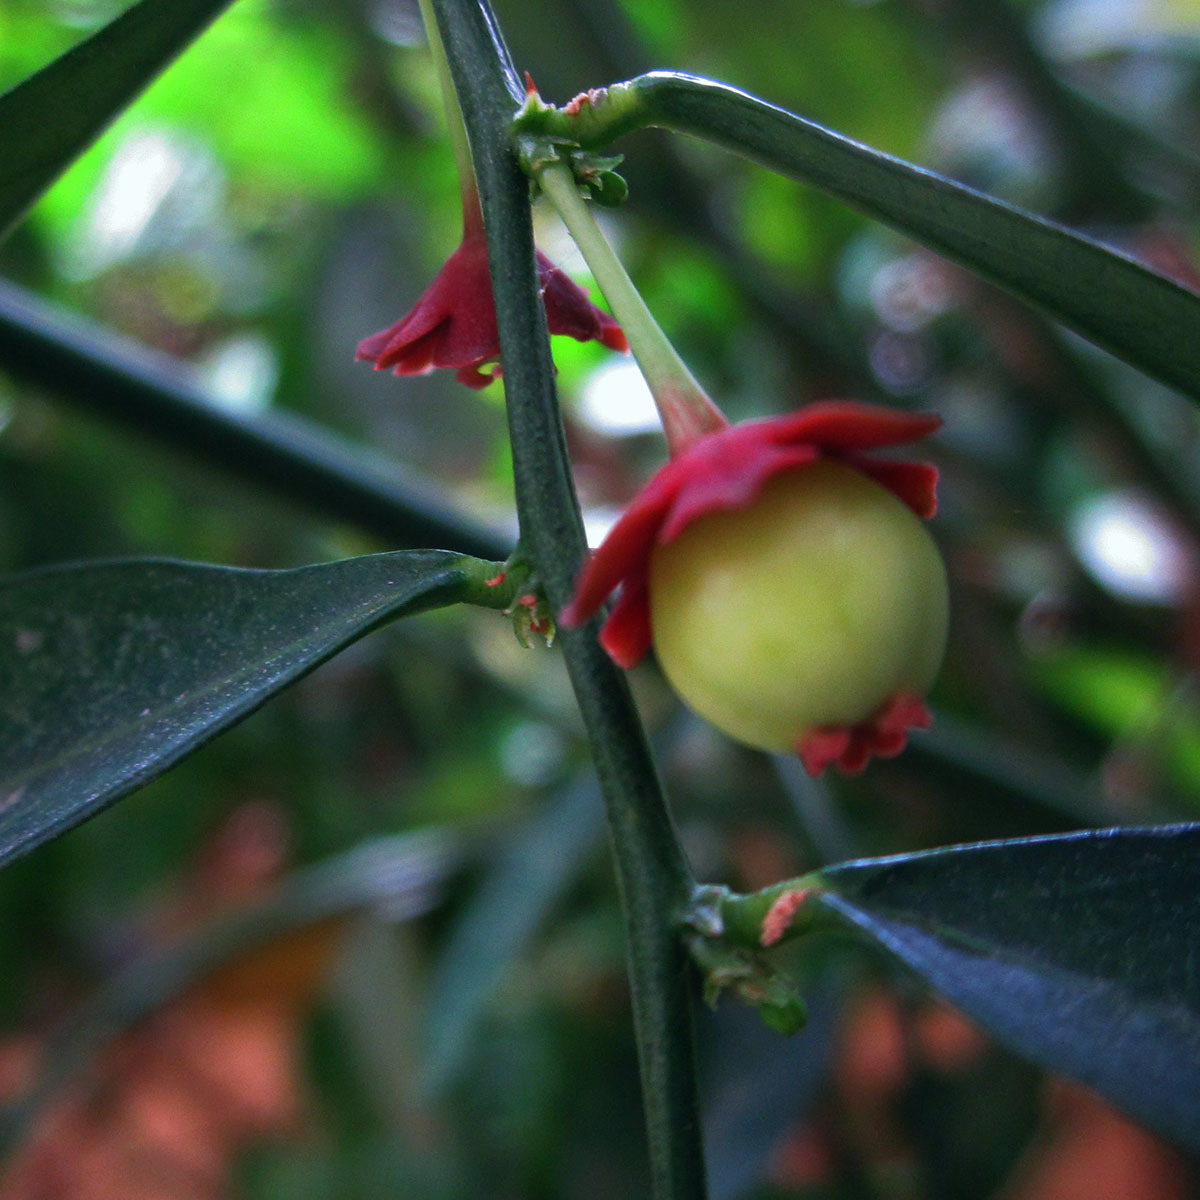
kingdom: Plantae
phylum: Tracheophyta
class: Magnoliopsida
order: Malpighiales
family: Phyllanthaceae
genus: Breynia
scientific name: Breynia androgyna
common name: Star gooseberry
